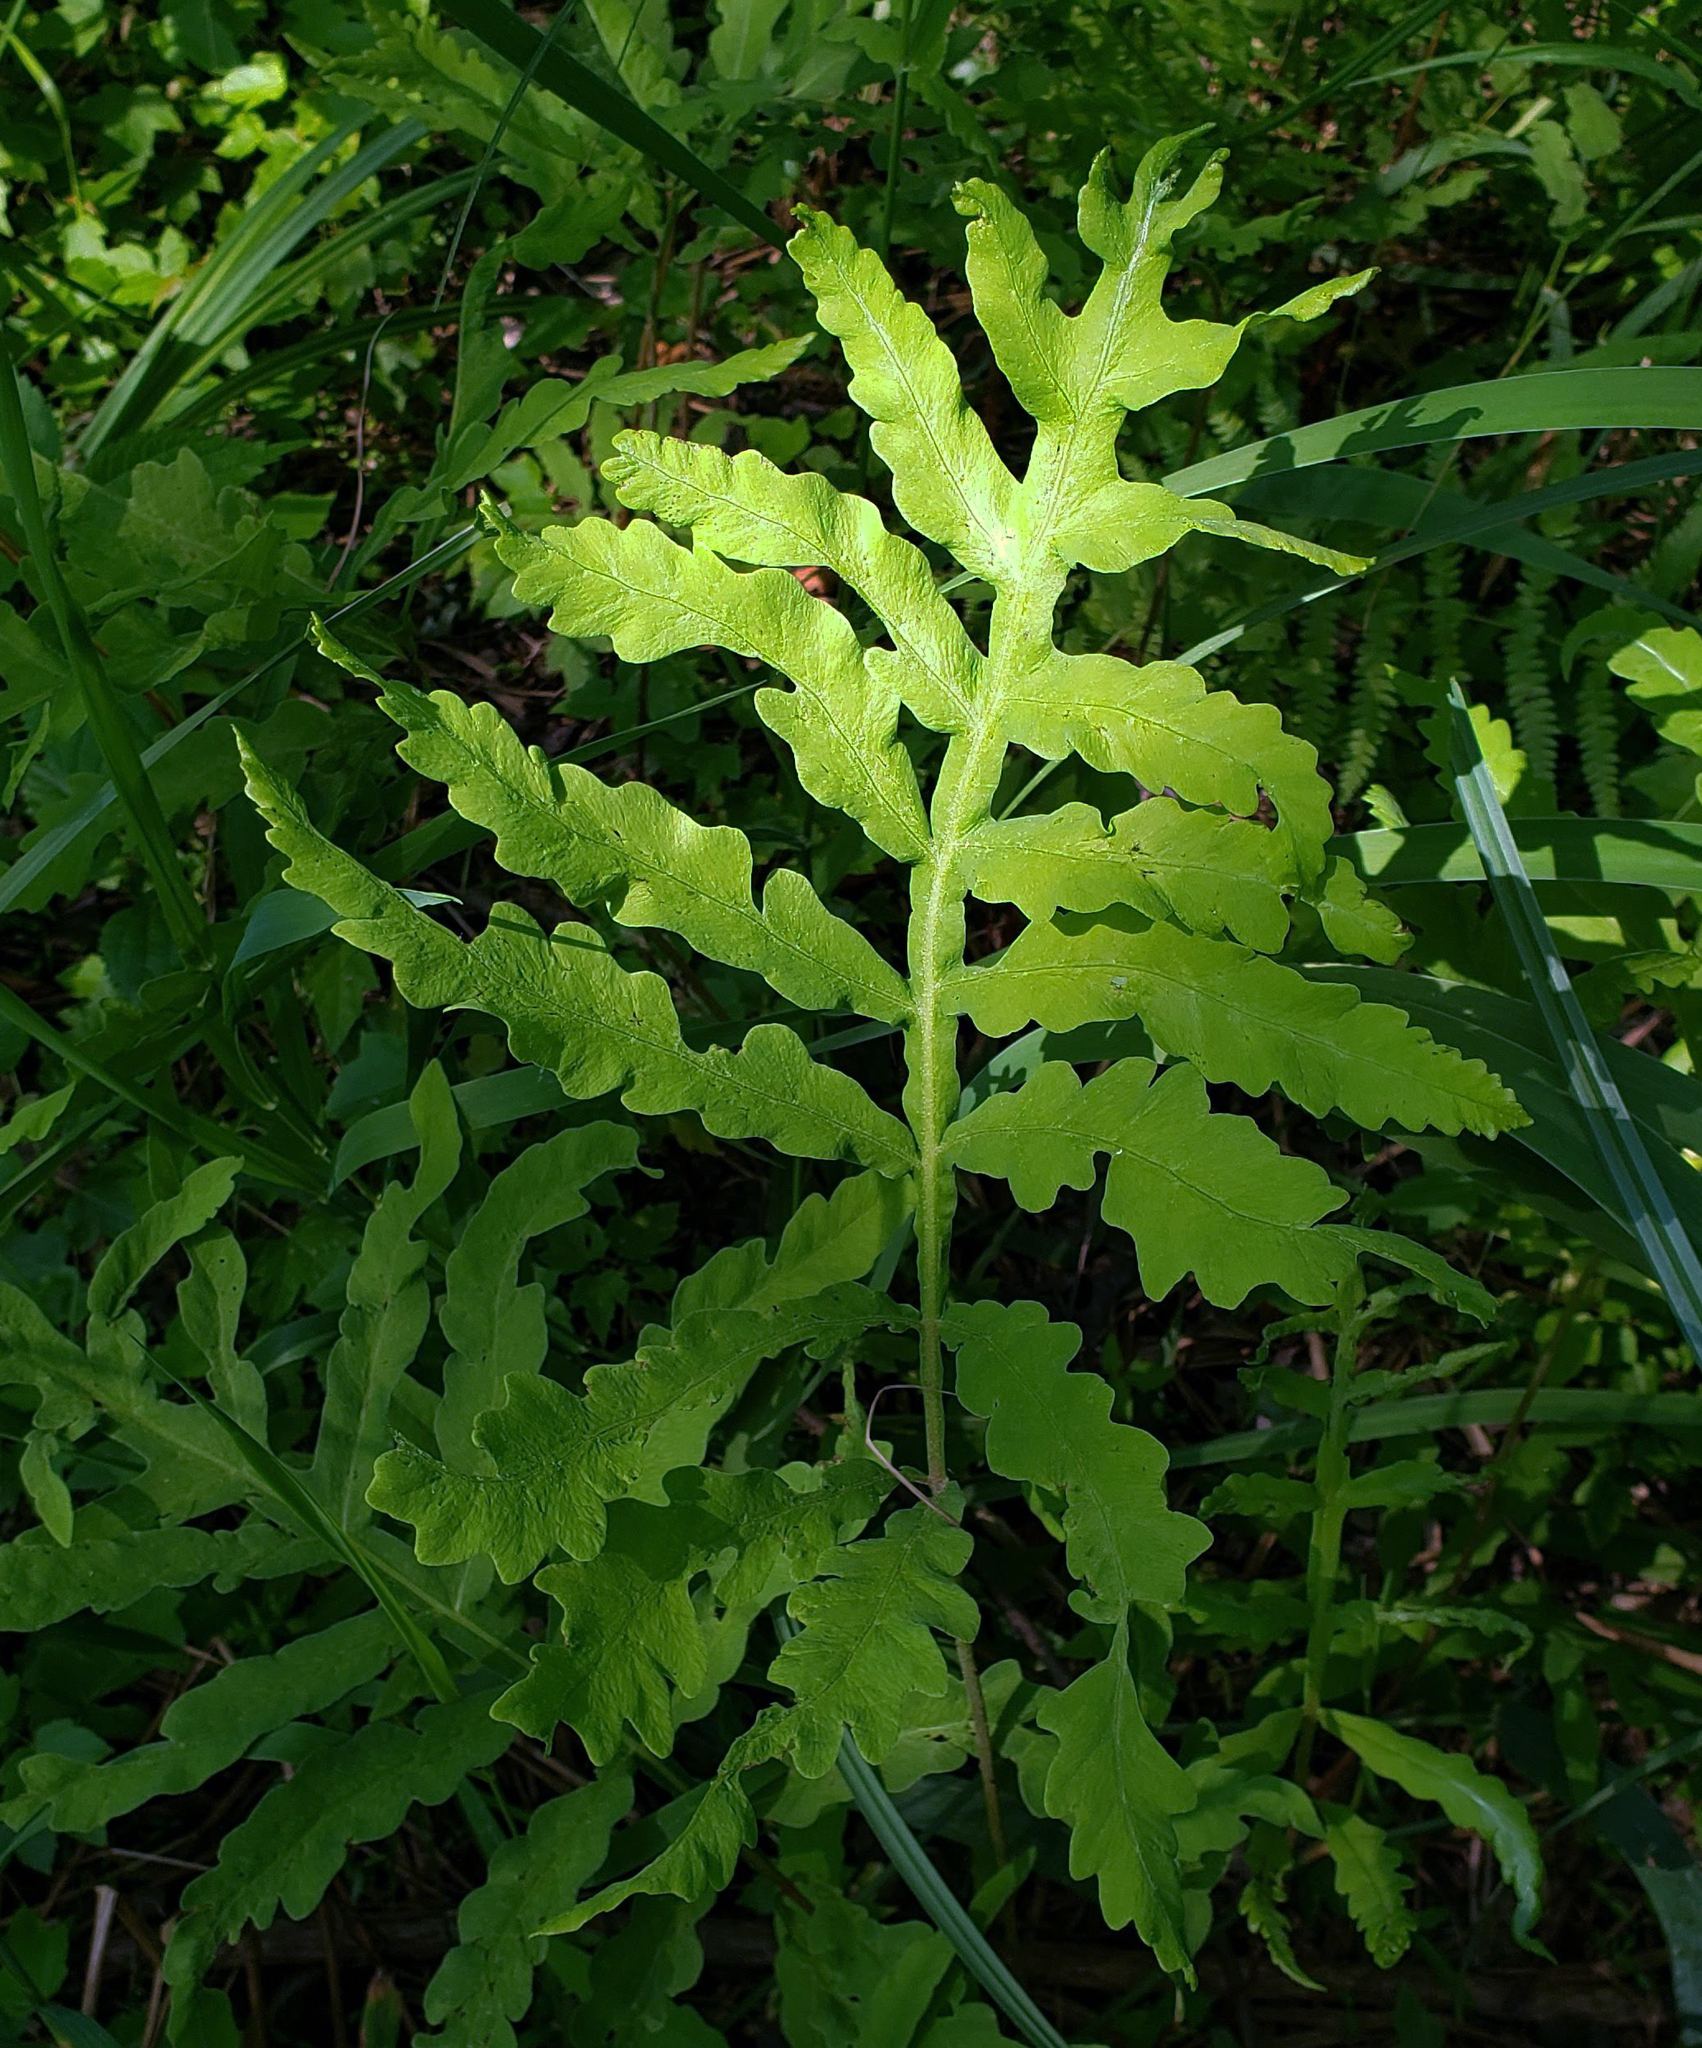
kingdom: Plantae
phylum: Tracheophyta
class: Polypodiopsida
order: Polypodiales
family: Onocleaceae
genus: Onoclea
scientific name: Onoclea sensibilis
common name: Sensitive fern
